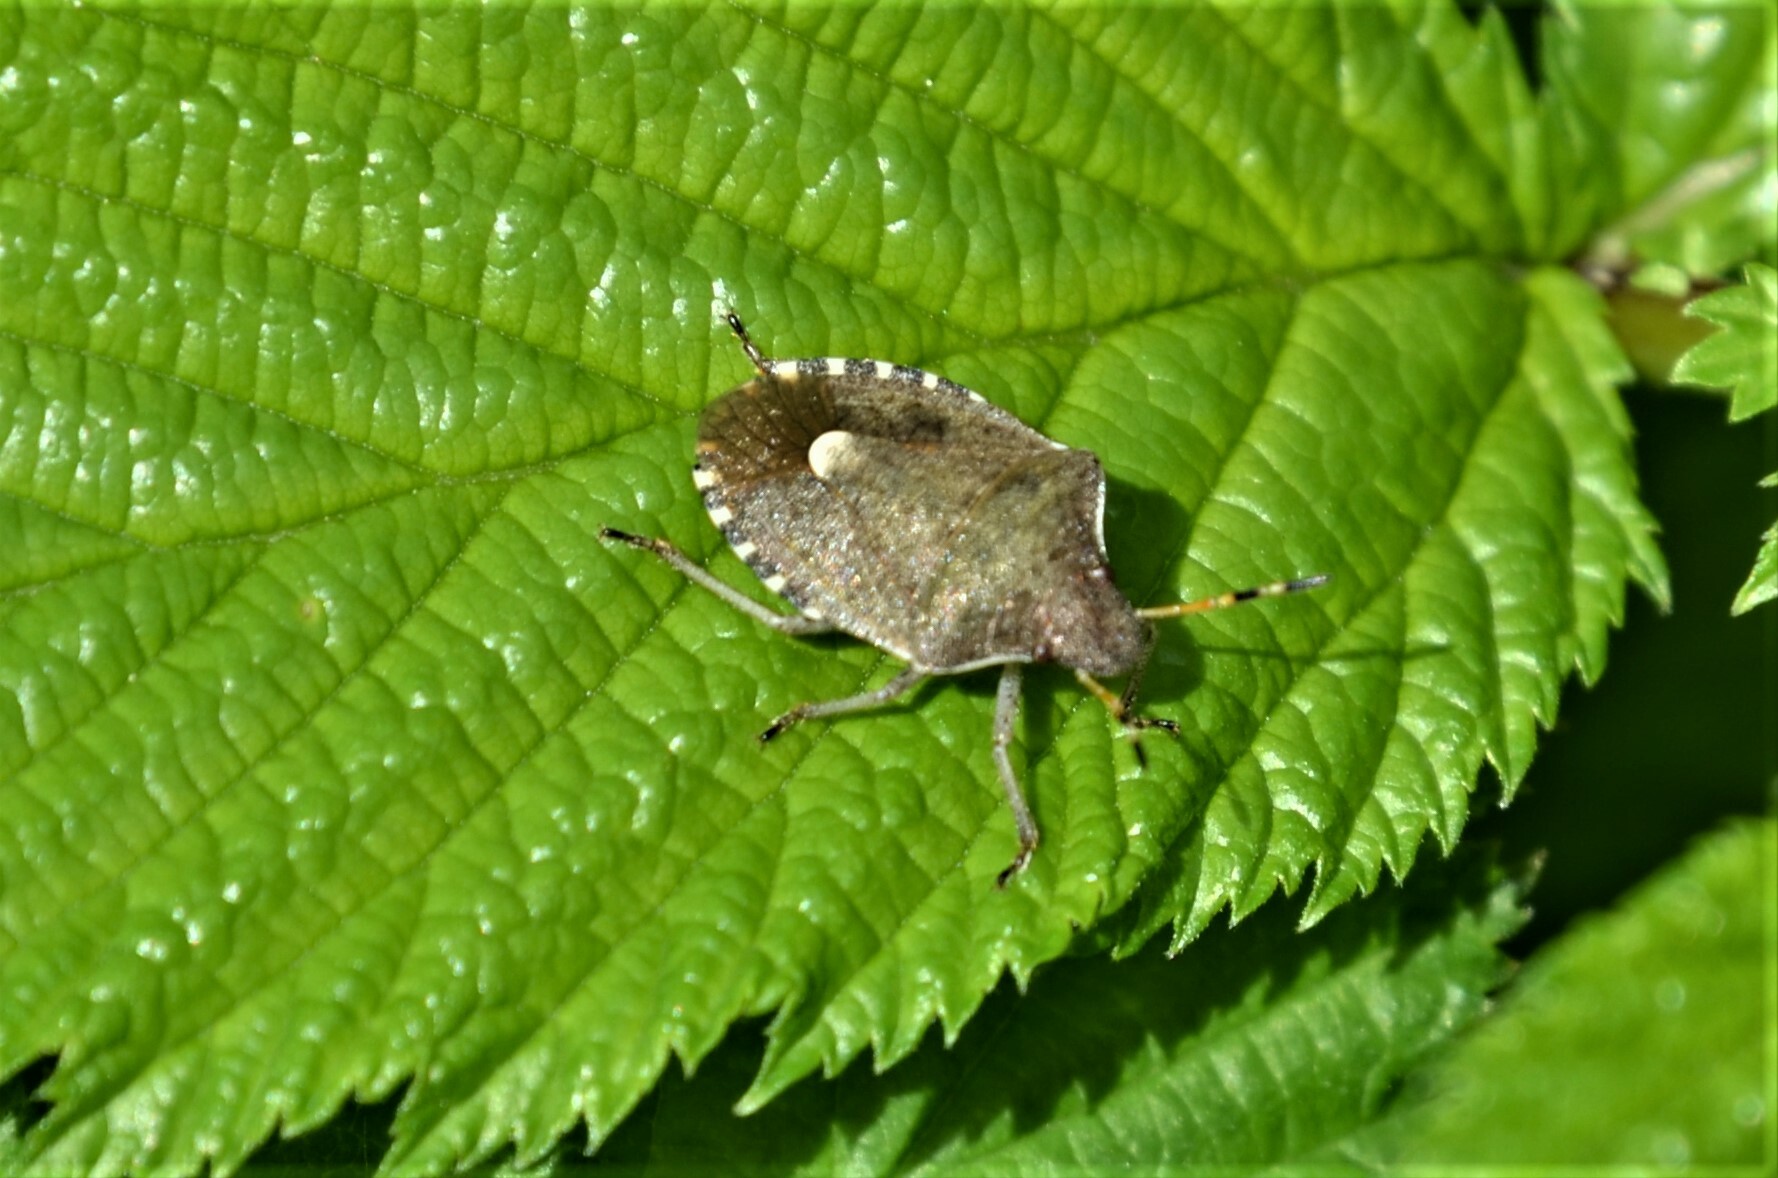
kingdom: Animalia
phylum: Arthropoda
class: Insecta
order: Hemiptera
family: Pentatomidae
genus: Holcostethus
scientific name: Holcostethus strictus
